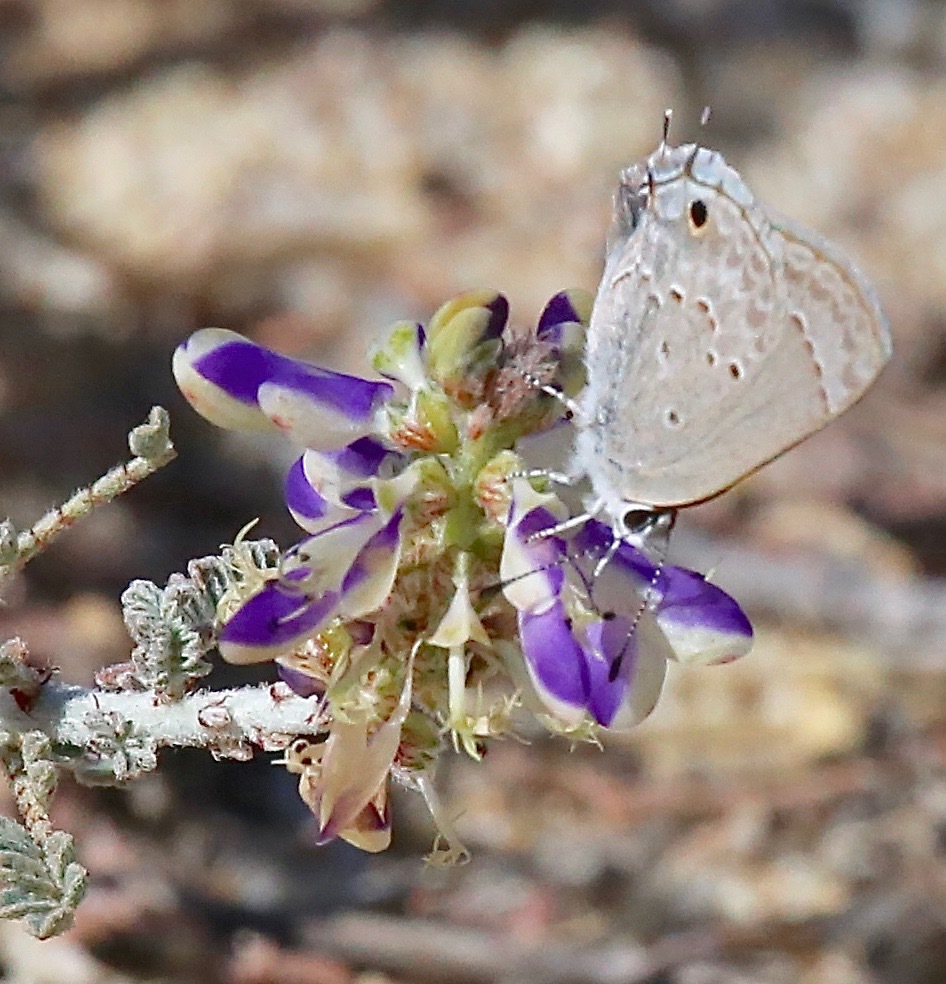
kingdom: Plantae
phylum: Tracheophyta
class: Magnoliopsida
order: Fabales
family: Fabaceae
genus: Marina
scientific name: Marina maritima
